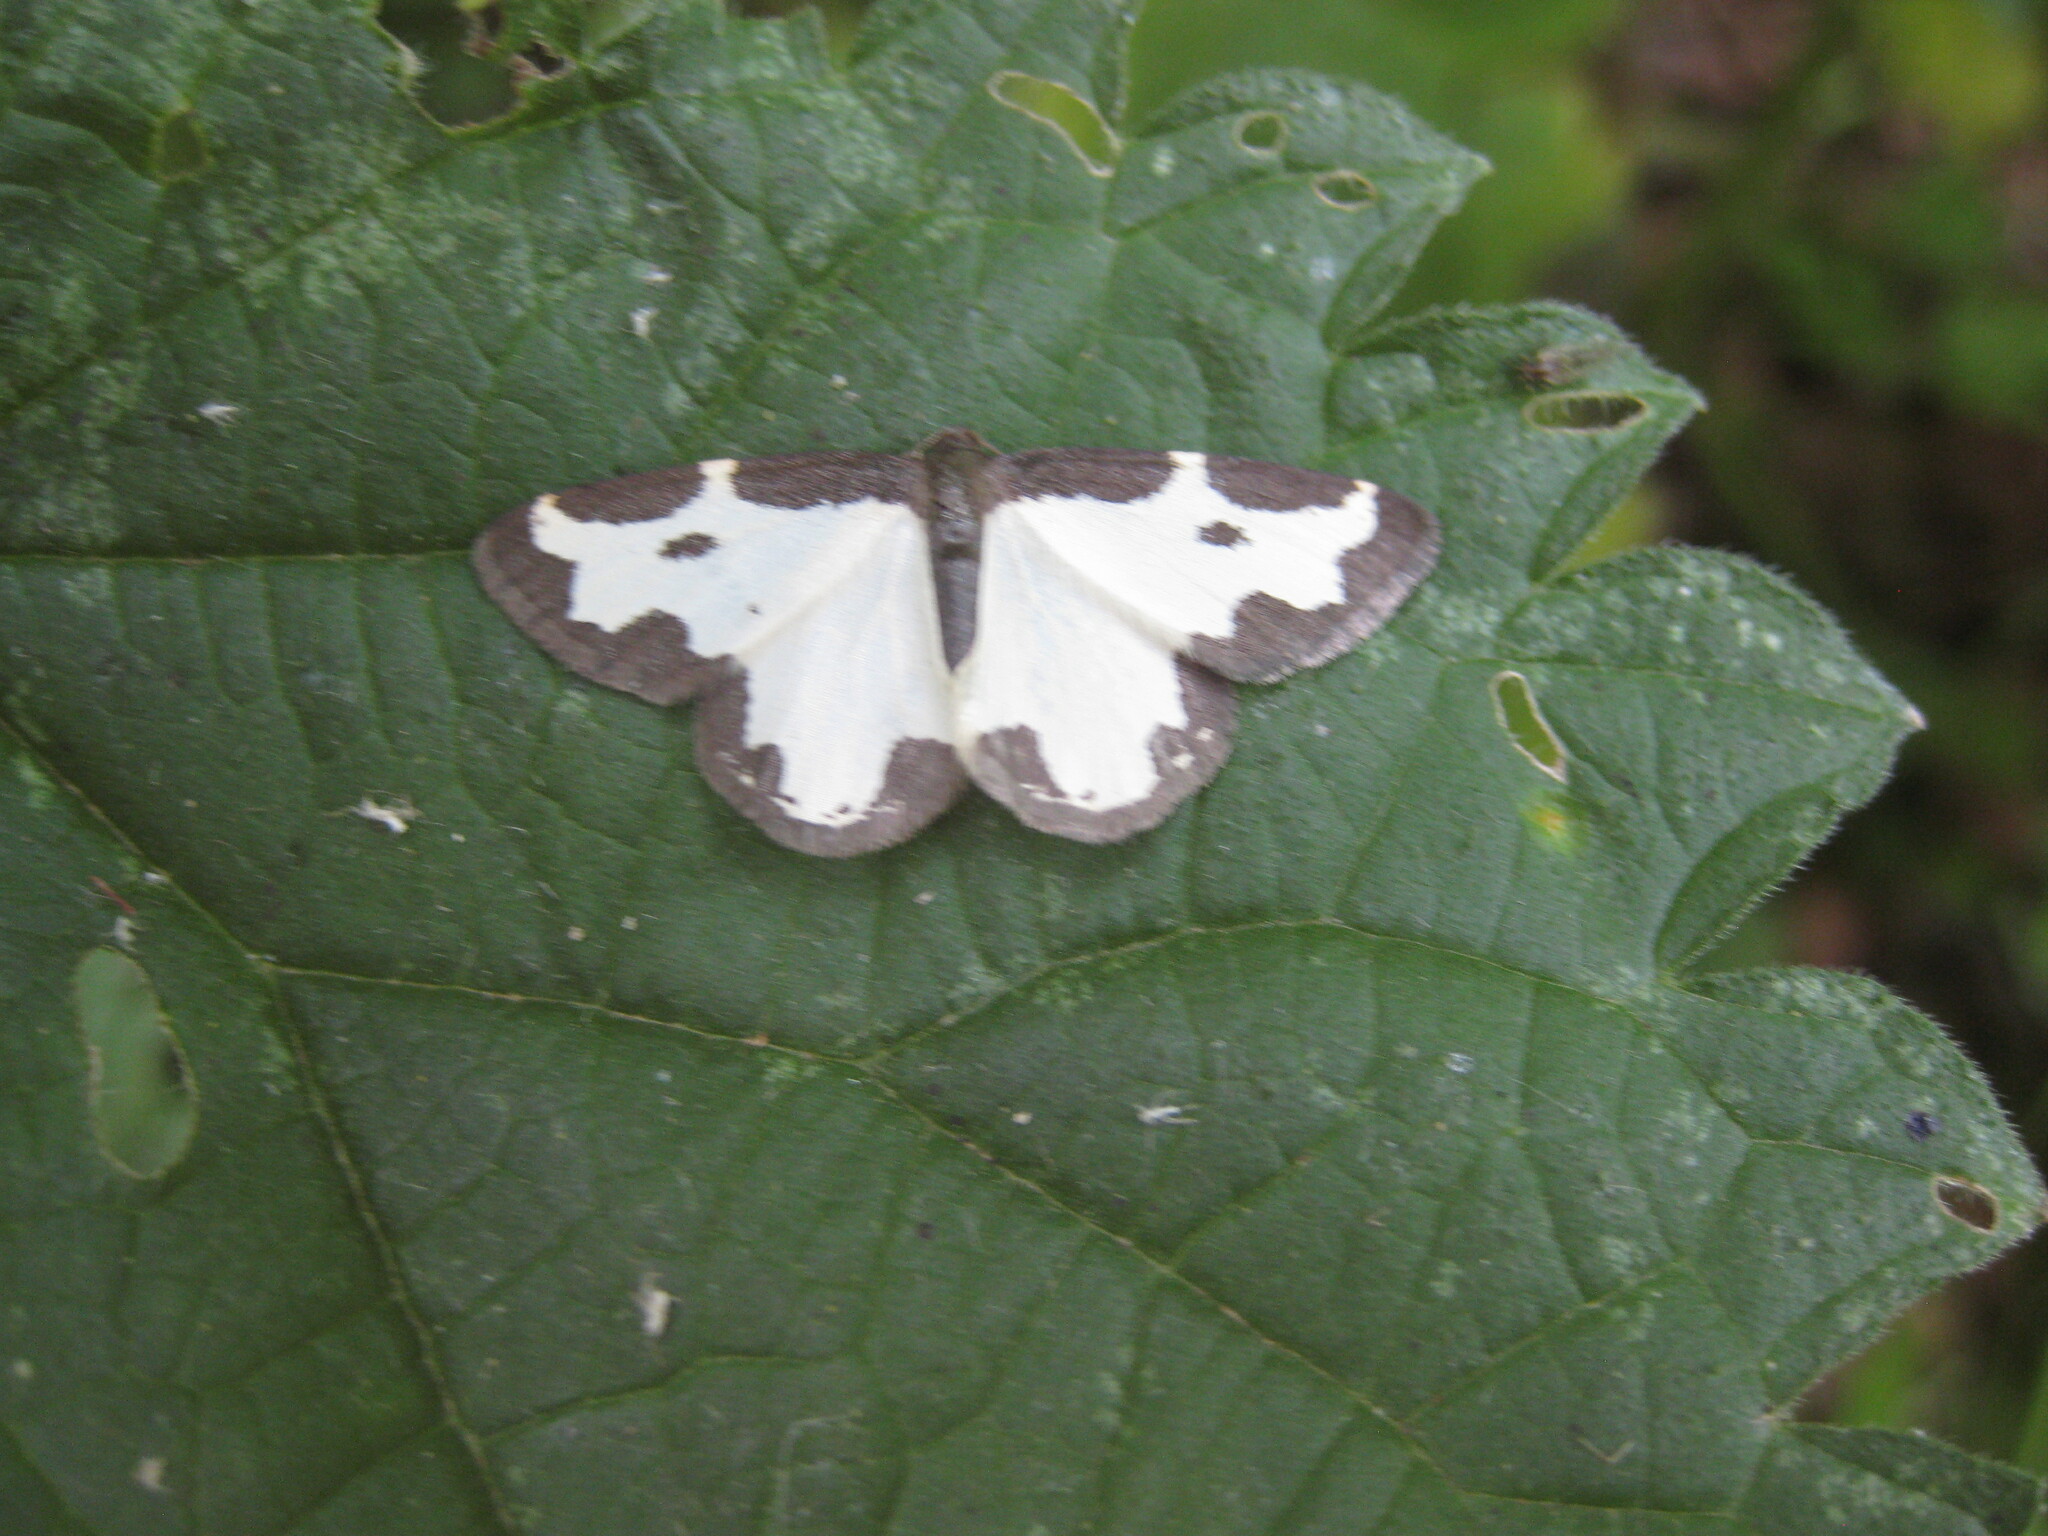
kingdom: Animalia
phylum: Arthropoda
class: Insecta
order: Lepidoptera
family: Geometridae
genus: Lomaspilis
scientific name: Lomaspilis marginata
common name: Clouded border
